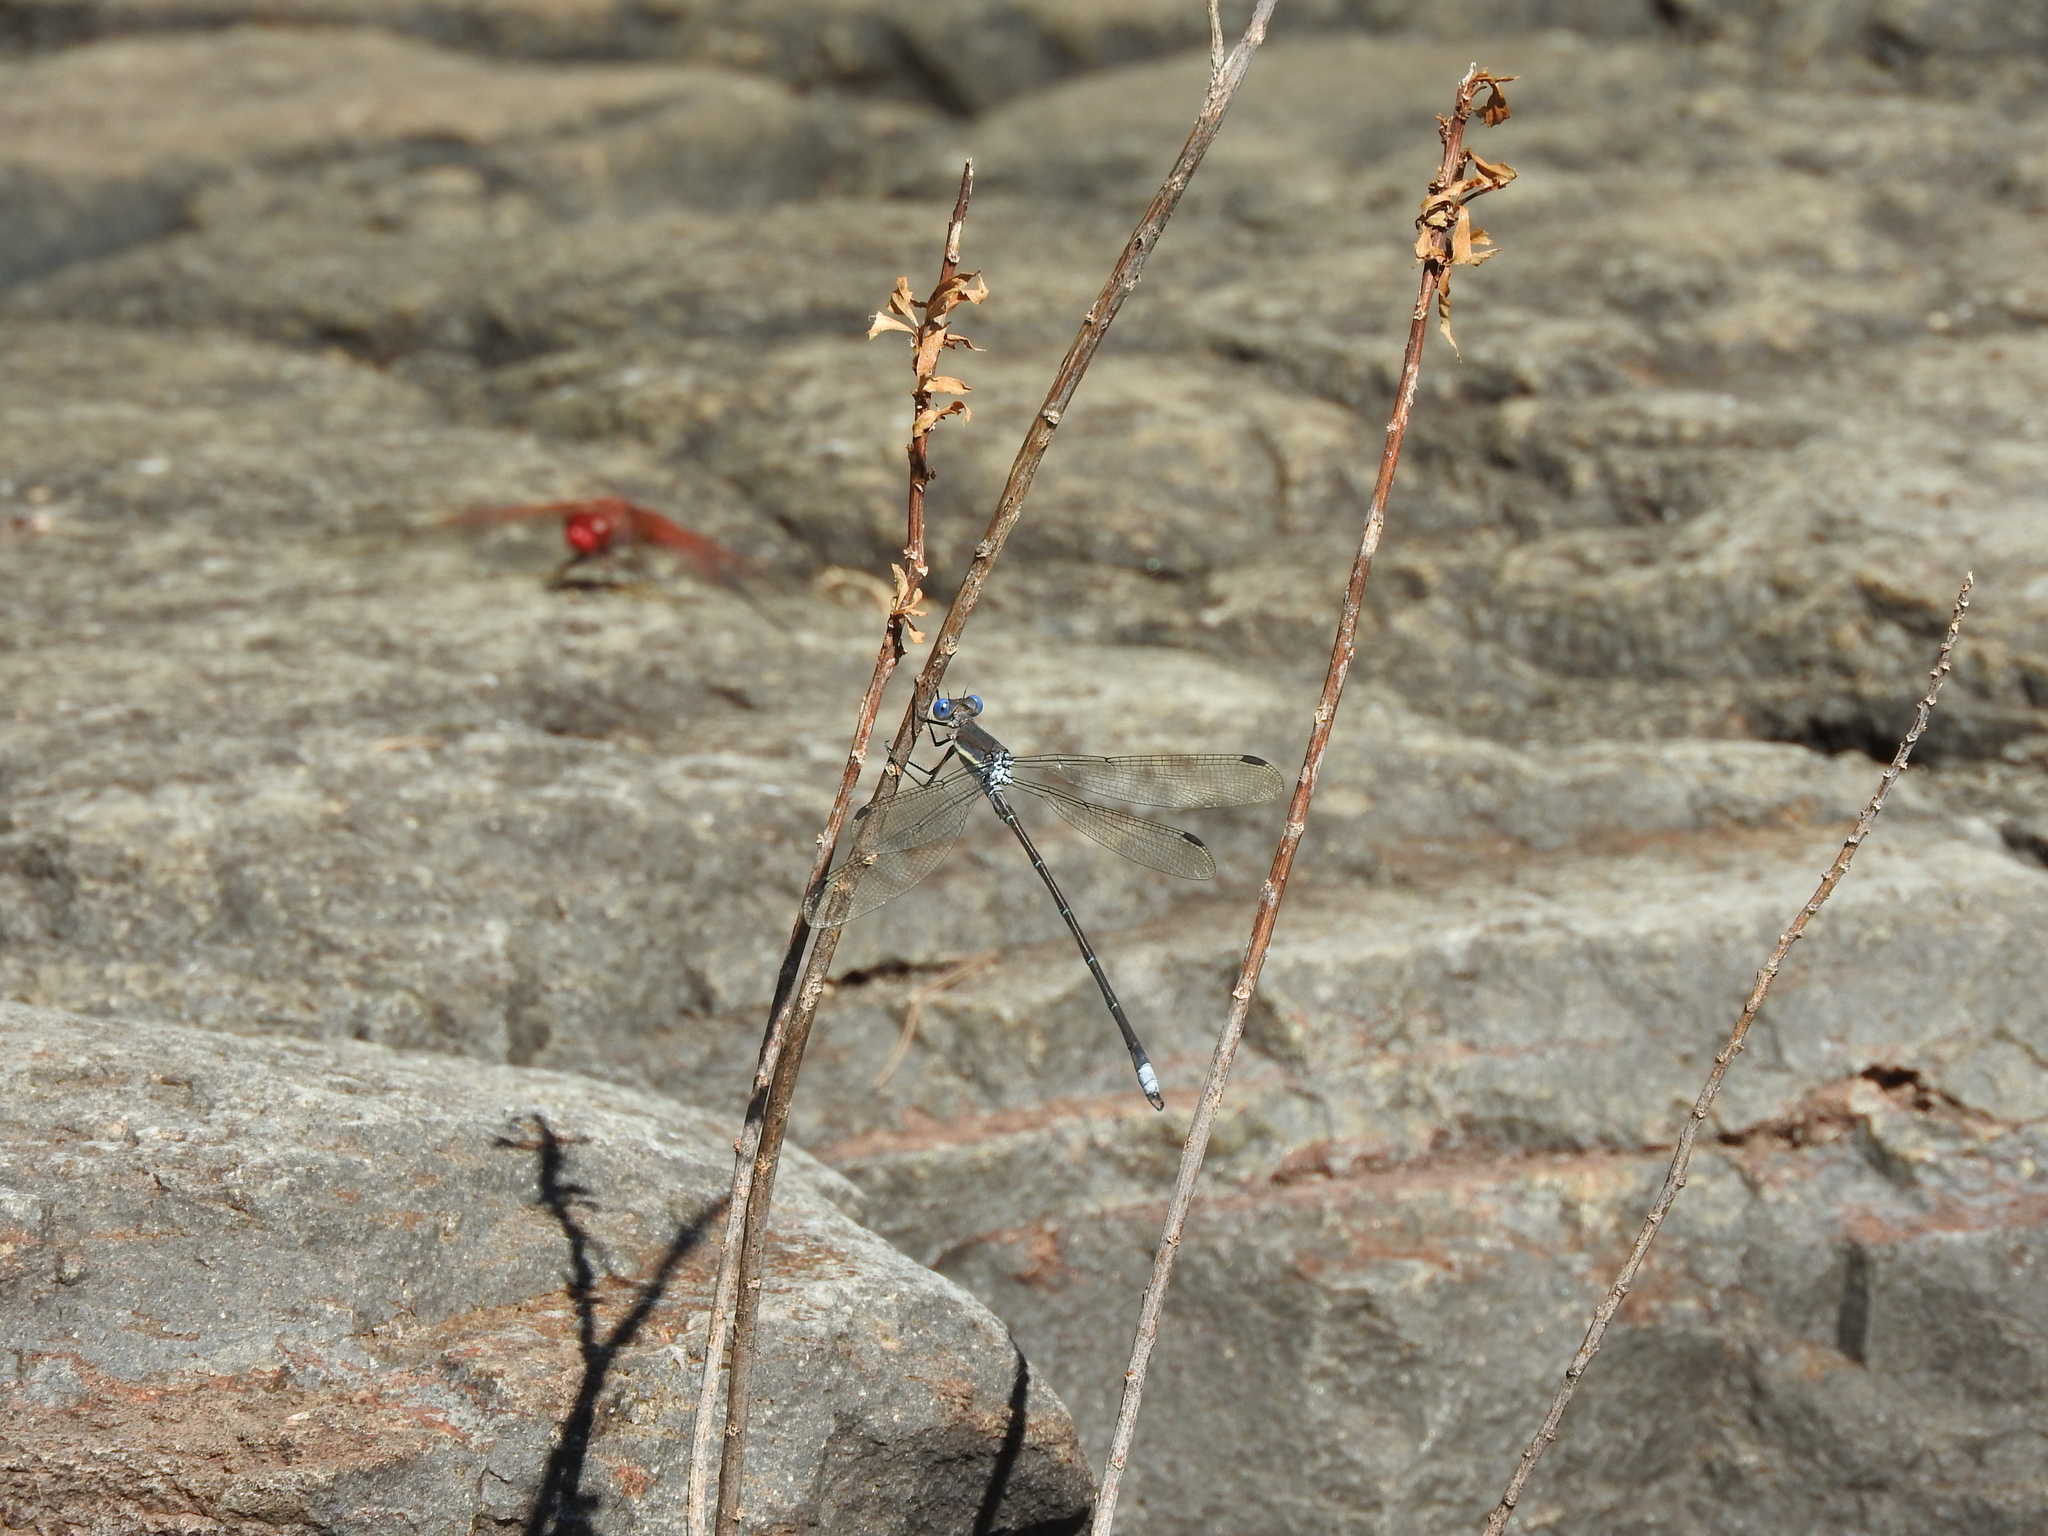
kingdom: Animalia
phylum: Arthropoda
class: Insecta
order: Odonata
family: Lestidae
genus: Archilestes
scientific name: Archilestes grandis
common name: Great spreadwing
